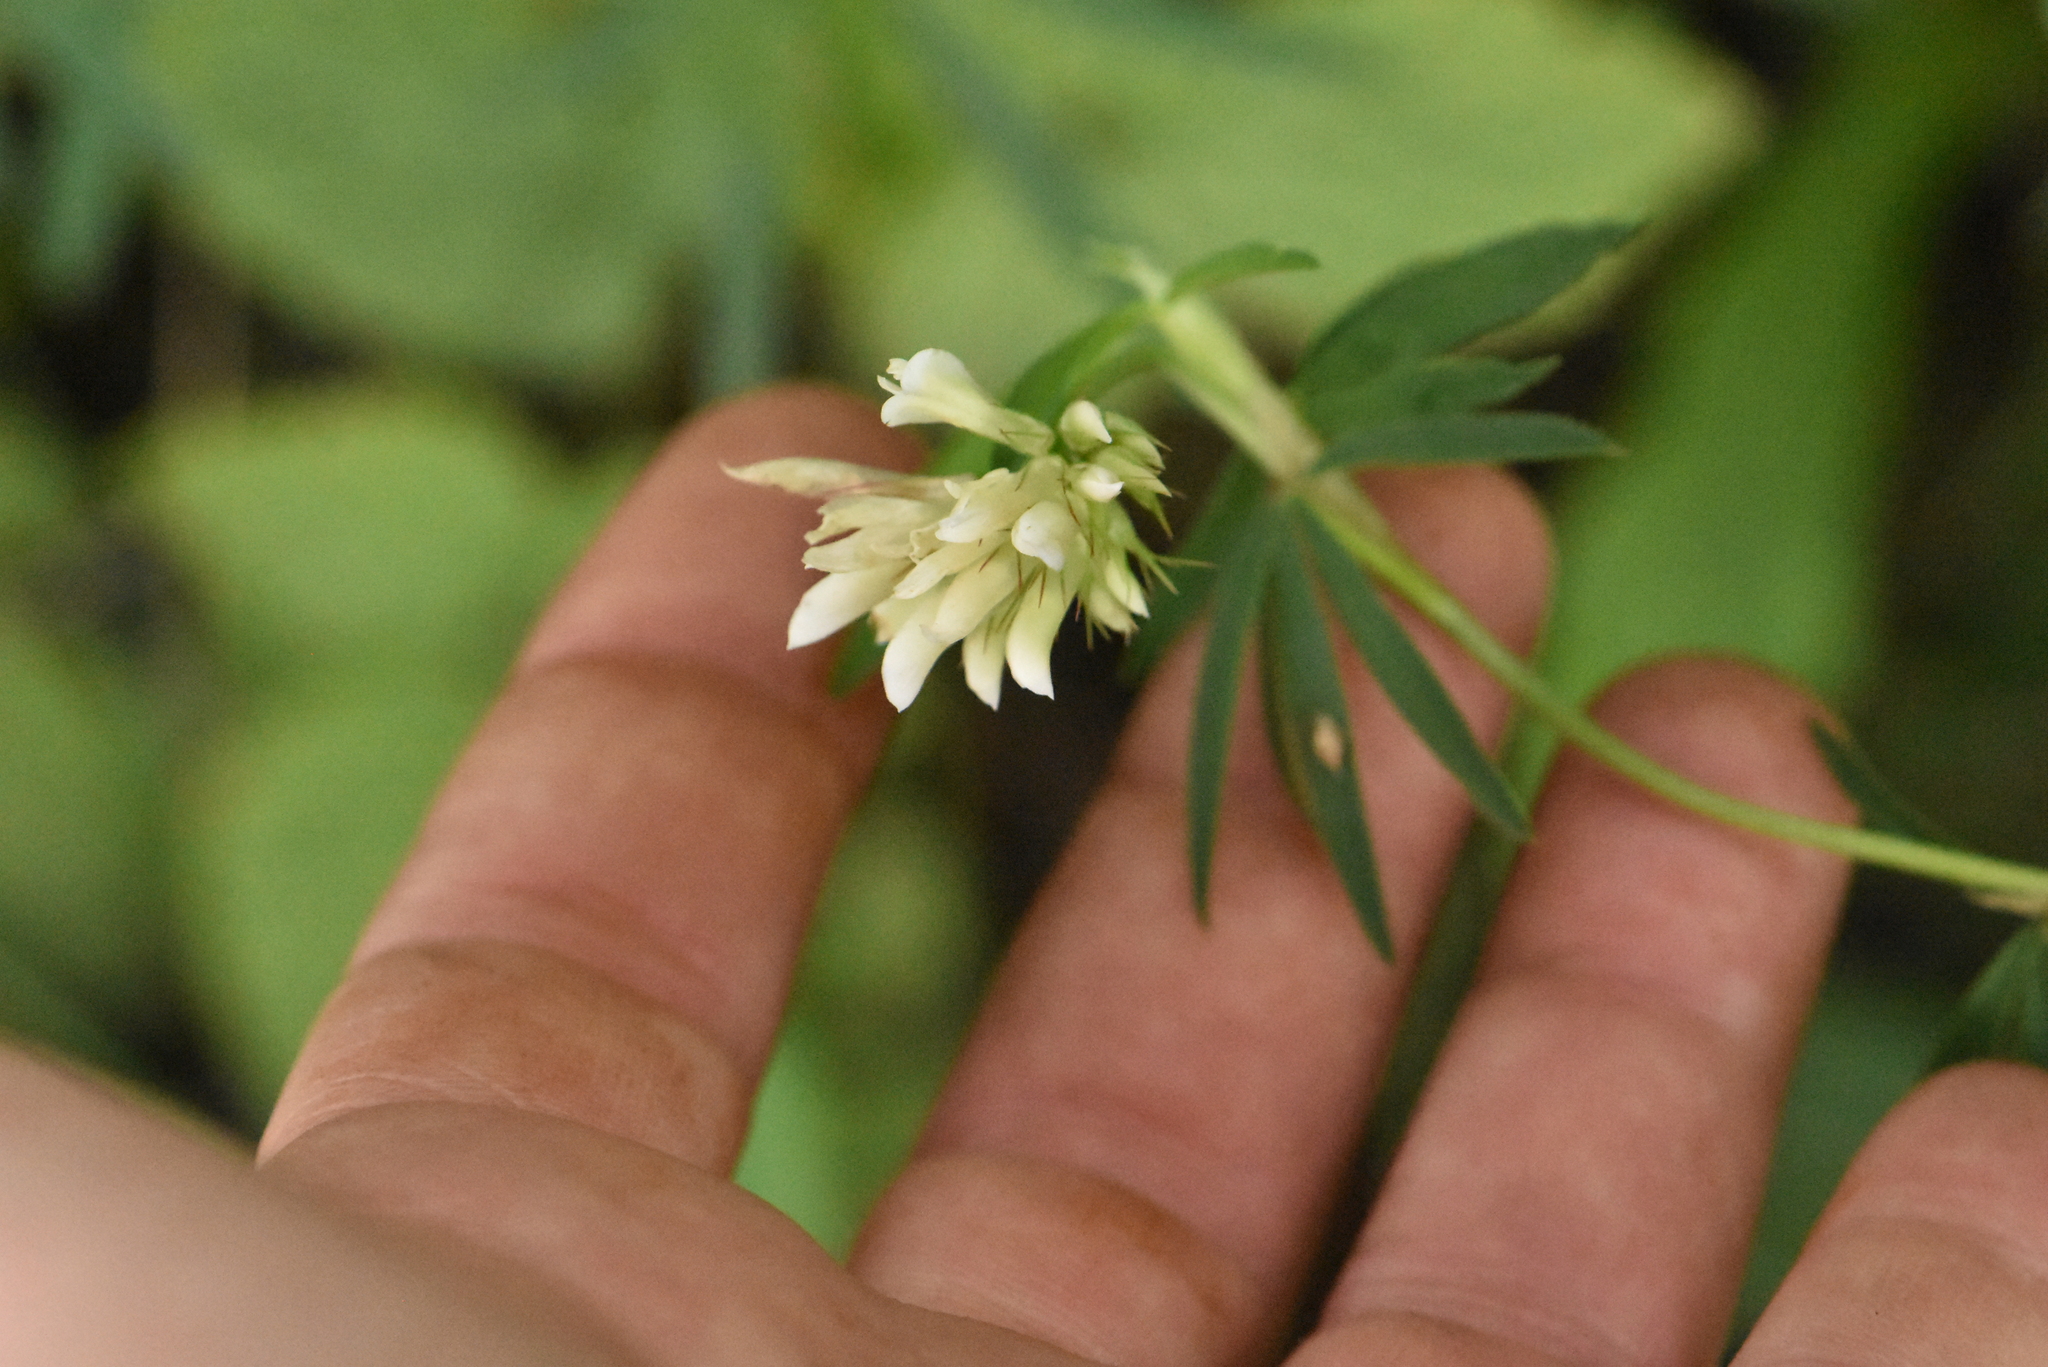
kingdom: Plantae
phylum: Tracheophyta
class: Magnoliopsida
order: Fabales
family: Fabaceae
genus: Trifolium
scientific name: Trifolium lupinaster
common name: Lupine clover
